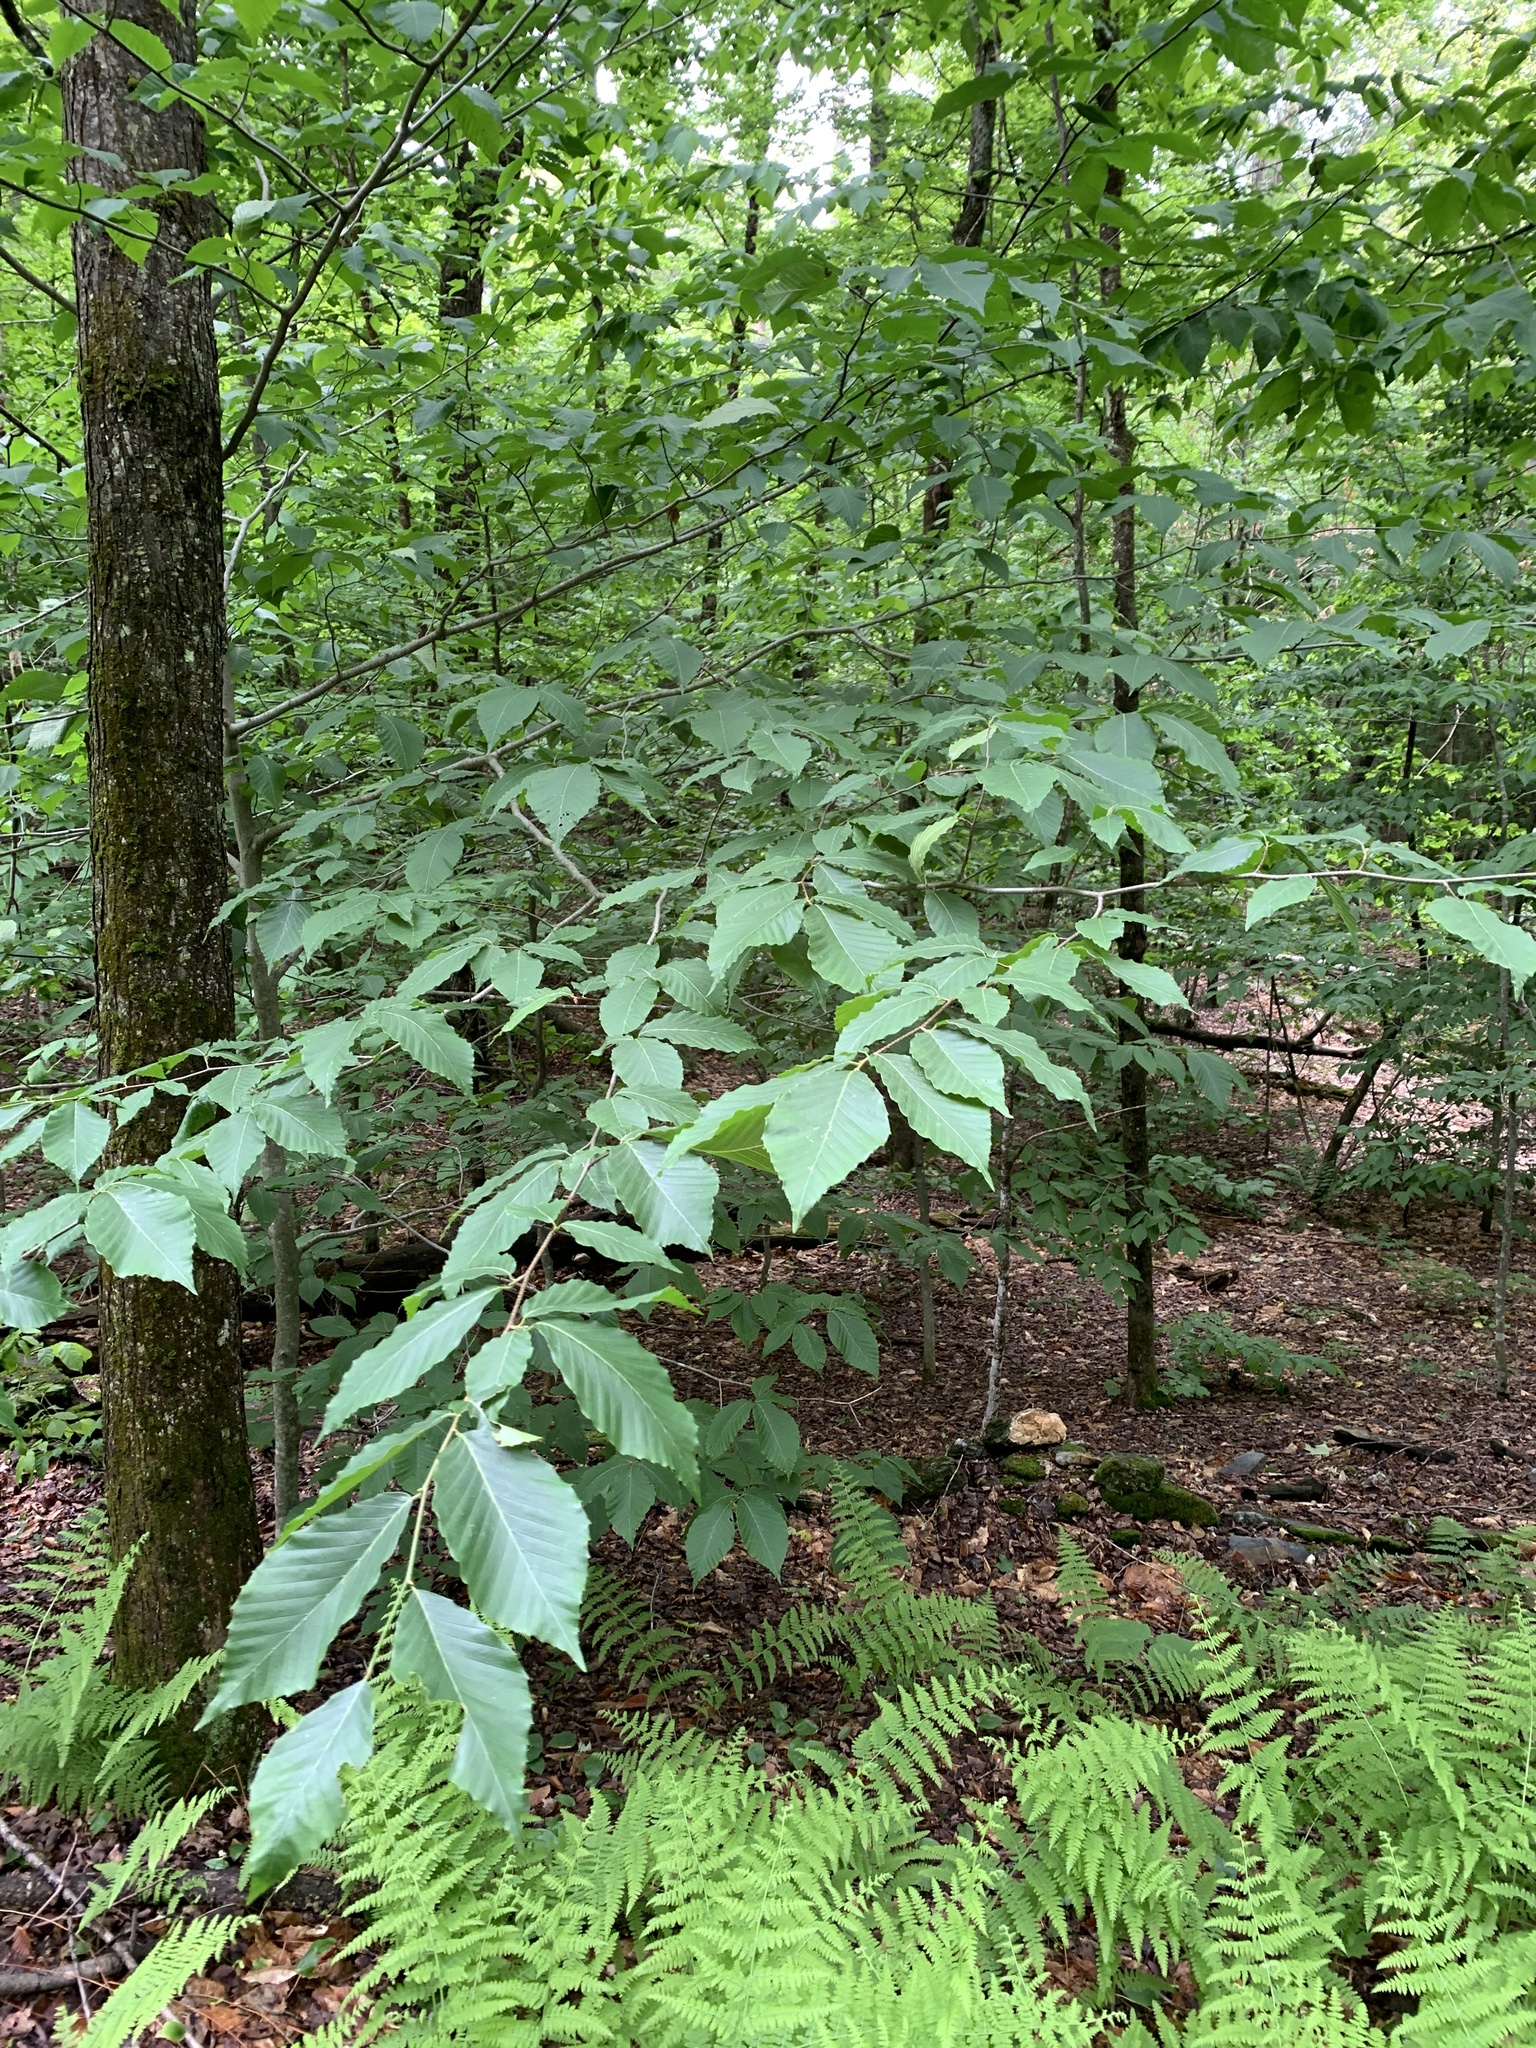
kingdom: Plantae
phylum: Tracheophyta
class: Magnoliopsida
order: Fagales
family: Fagaceae
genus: Fagus
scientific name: Fagus grandifolia
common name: American beech
